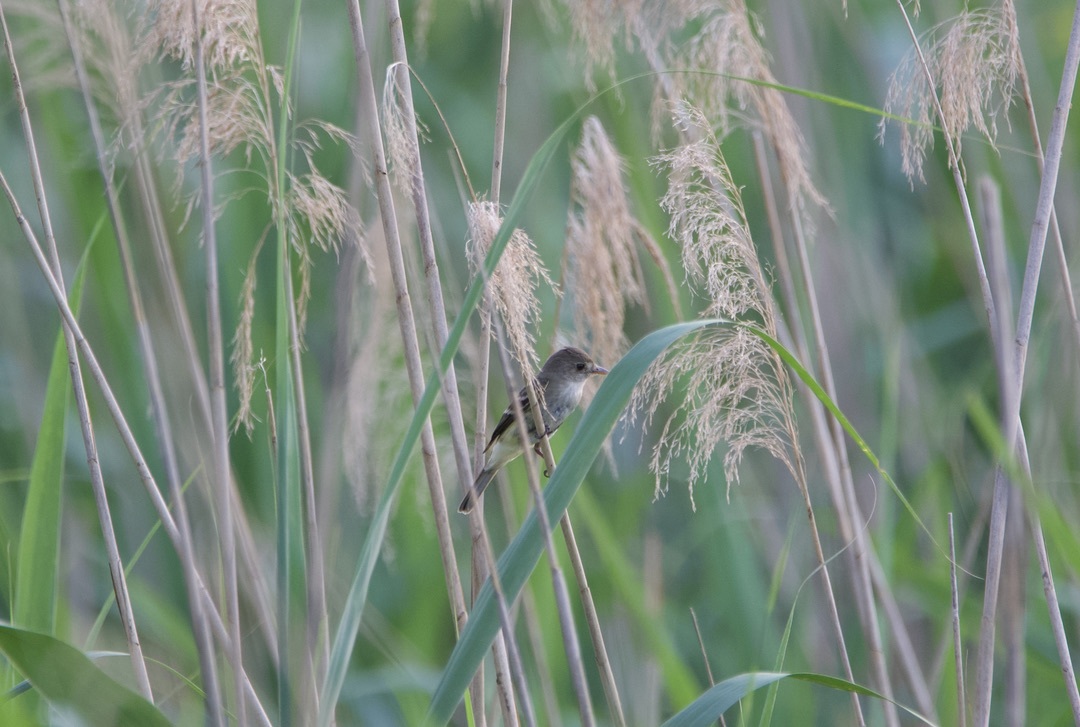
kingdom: Animalia
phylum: Chordata
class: Aves
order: Passeriformes
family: Tyrannidae
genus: Contopus
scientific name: Contopus virens
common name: Eastern wood-pewee
